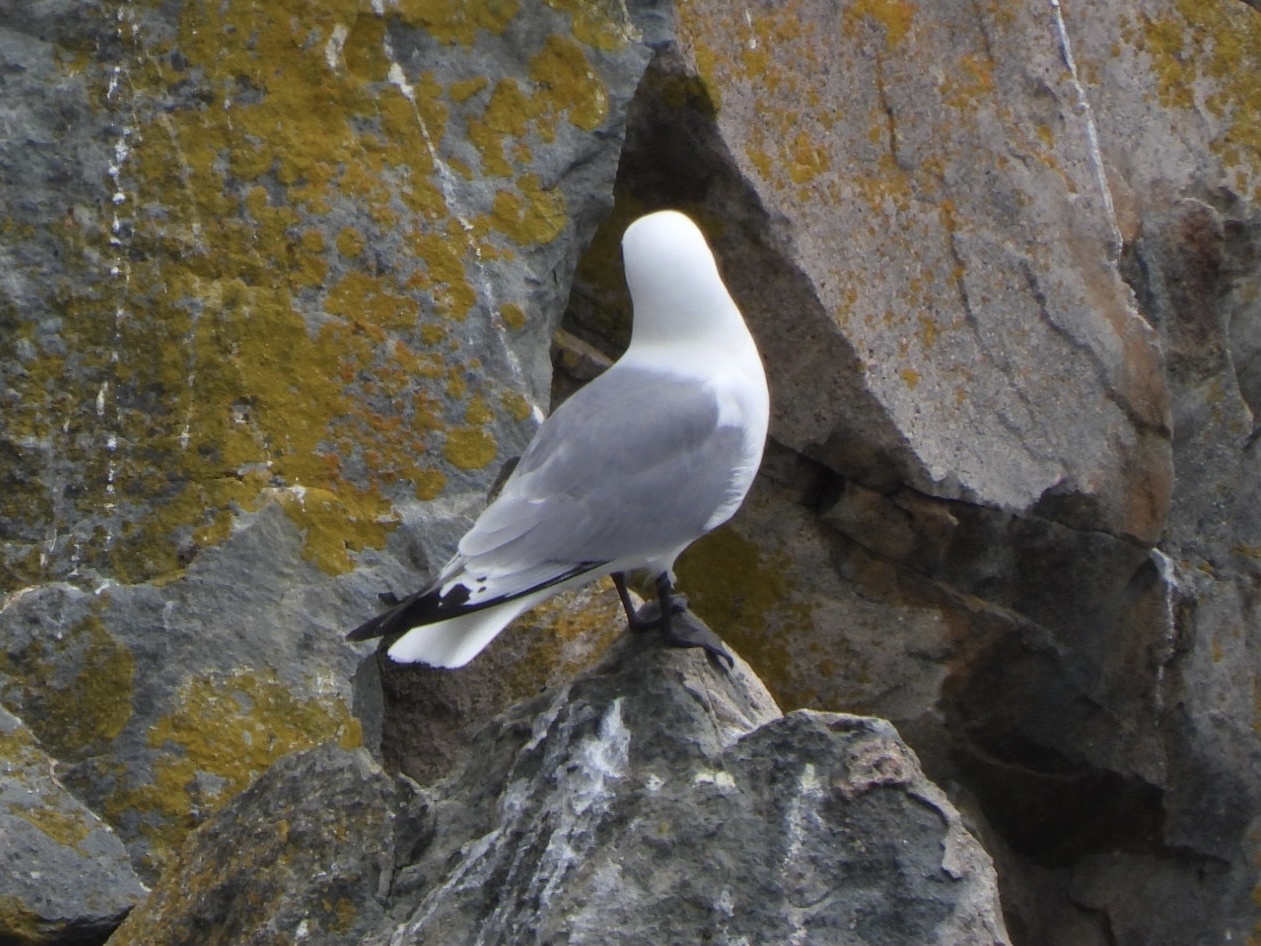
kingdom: Animalia
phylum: Chordata
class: Aves
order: Charadriiformes
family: Laridae
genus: Rissa
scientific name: Rissa tridactyla
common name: Black-legged kittiwake
